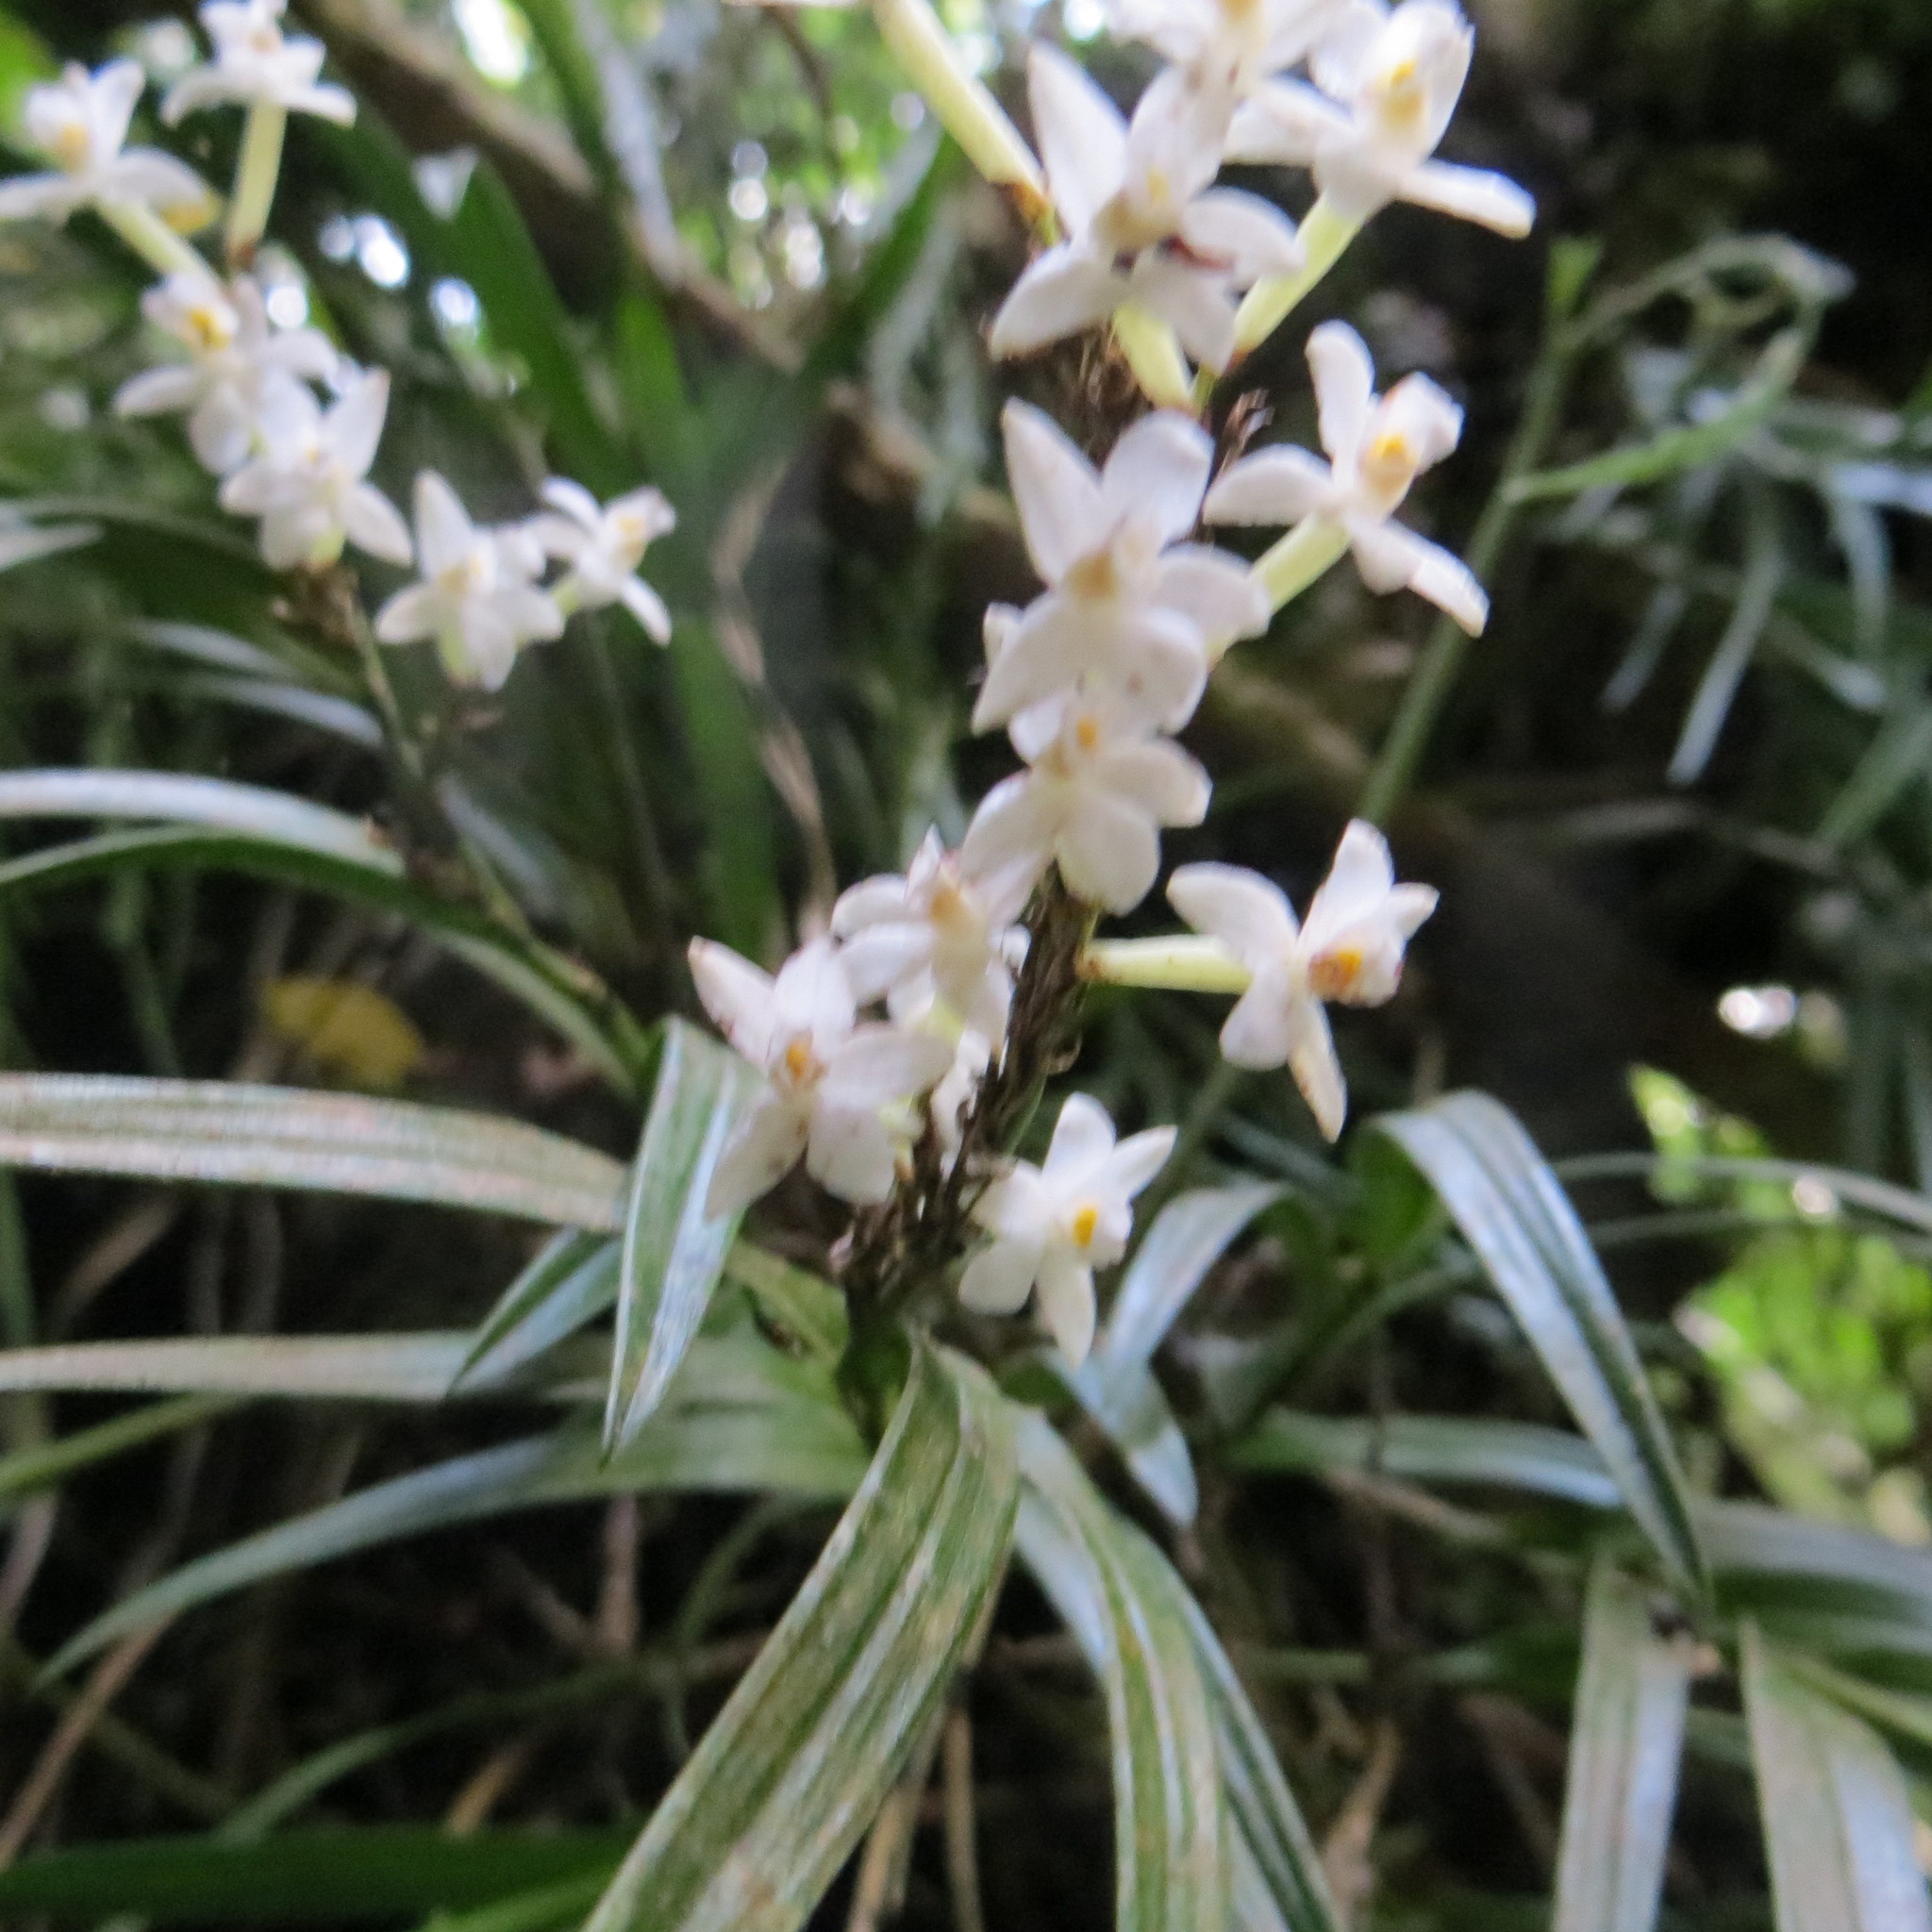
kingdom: Plantae
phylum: Tracheophyta
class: Liliopsida
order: Asparagales
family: Orchidaceae
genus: Earina
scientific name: Earina autumnalis
